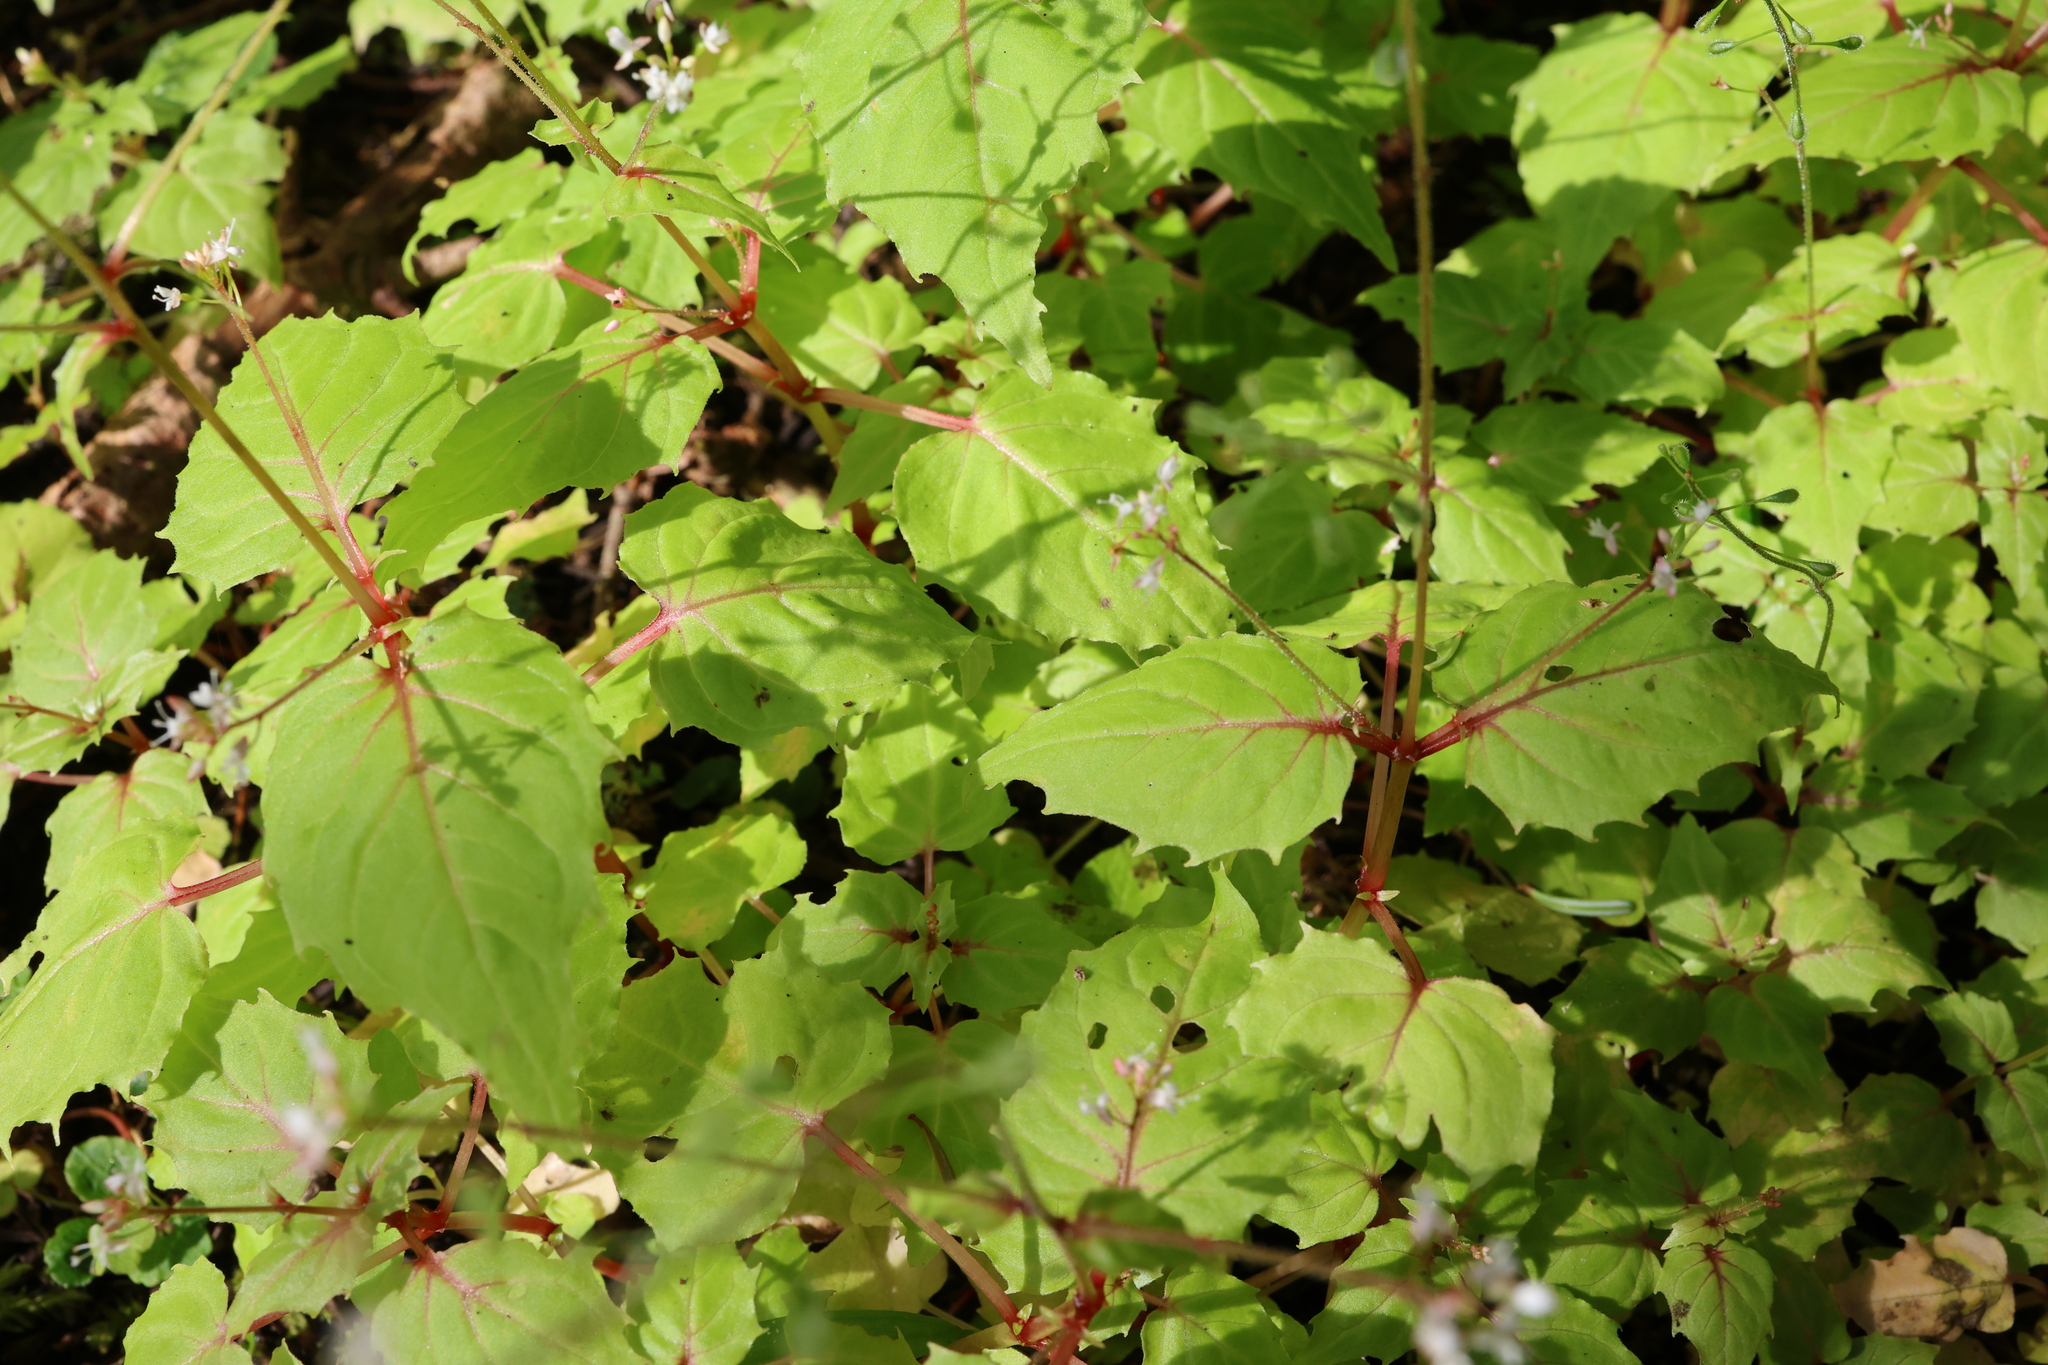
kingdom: Plantae
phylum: Tracheophyta
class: Magnoliopsida
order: Myrtales
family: Onagraceae
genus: Circaea
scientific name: Circaea alpina
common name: Alpine enchanter's-nightshade
